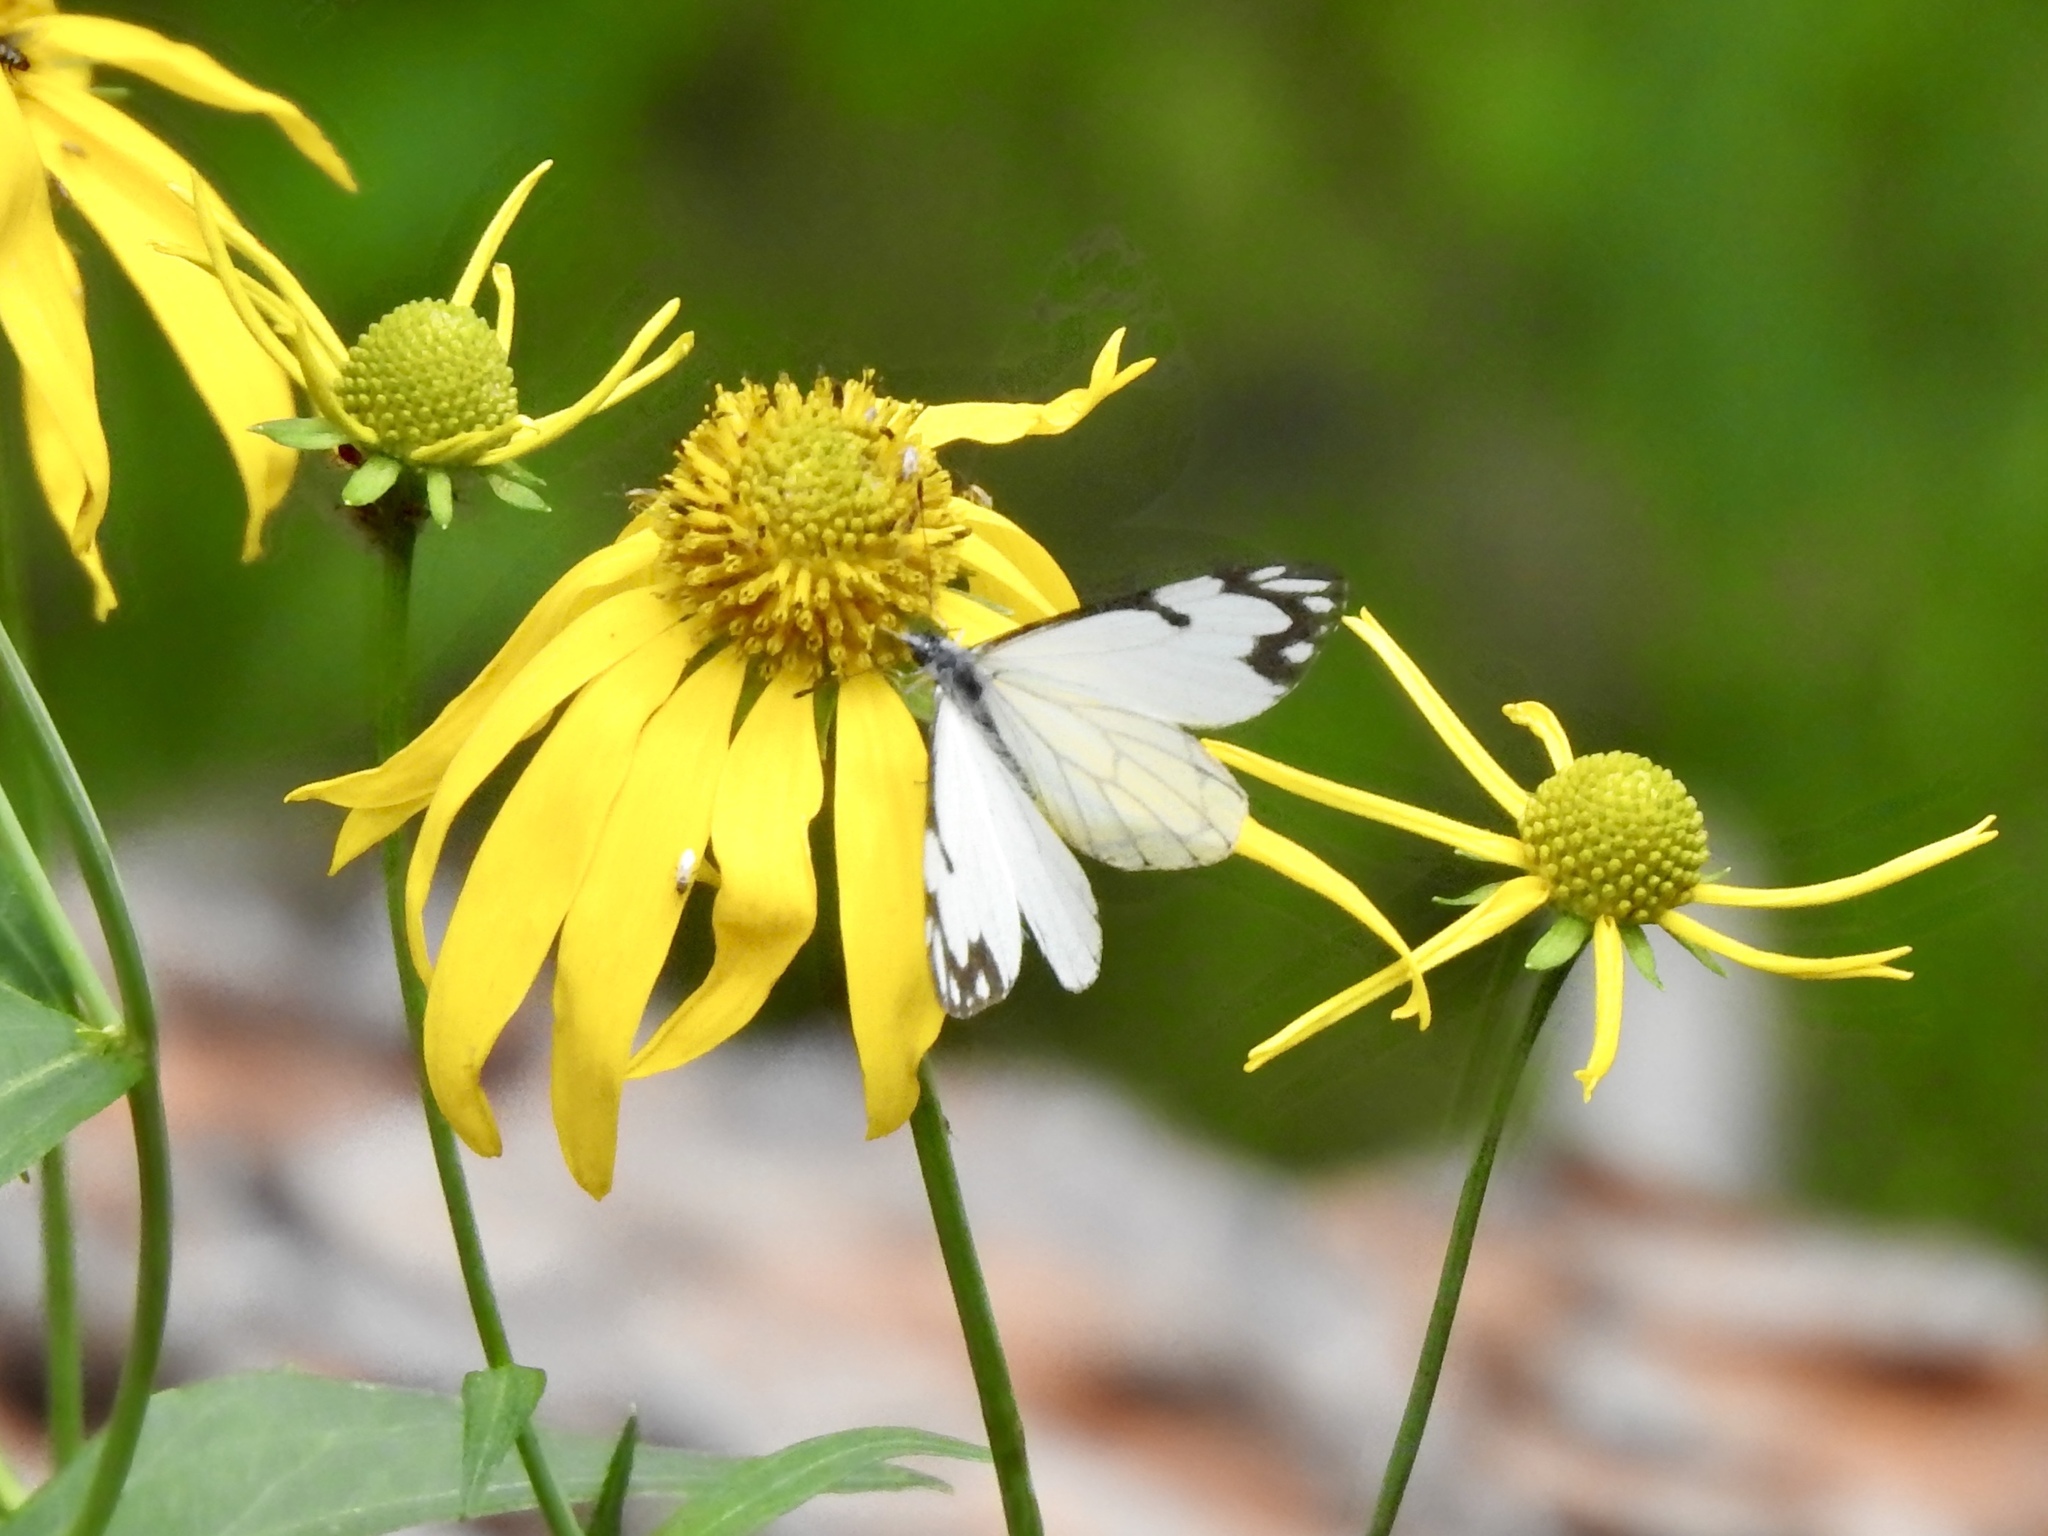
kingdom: Animalia
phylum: Arthropoda
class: Insecta
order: Lepidoptera
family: Pieridae
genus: Neophasia
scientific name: Neophasia menapia
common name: Pine white
